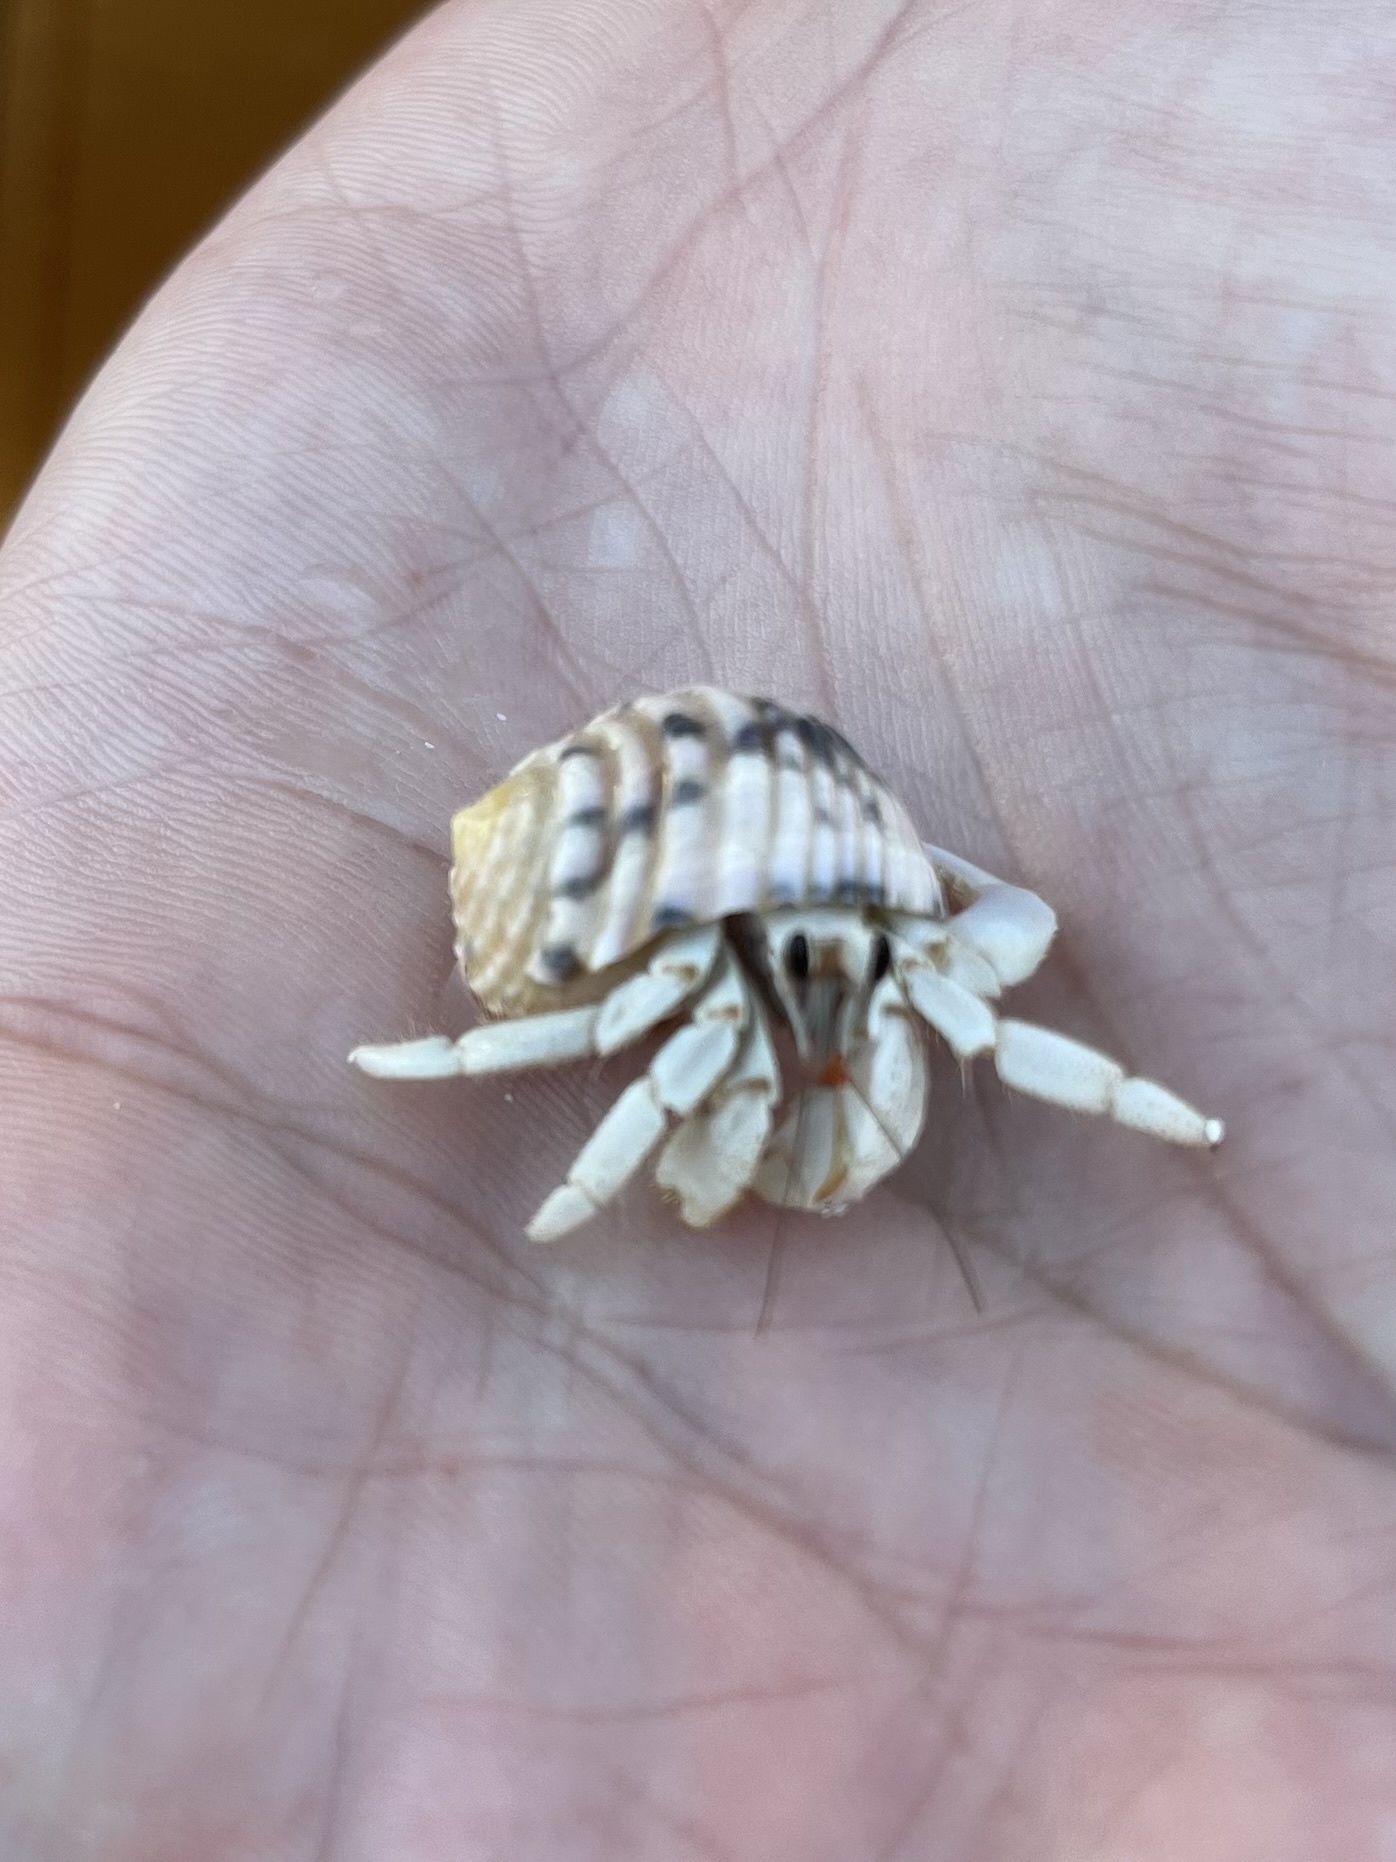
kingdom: Animalia
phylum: Arthropoda
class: Malacostraca
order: Decapoda
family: Coenobitidae
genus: Coenobita
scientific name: Coenobita rugosus
